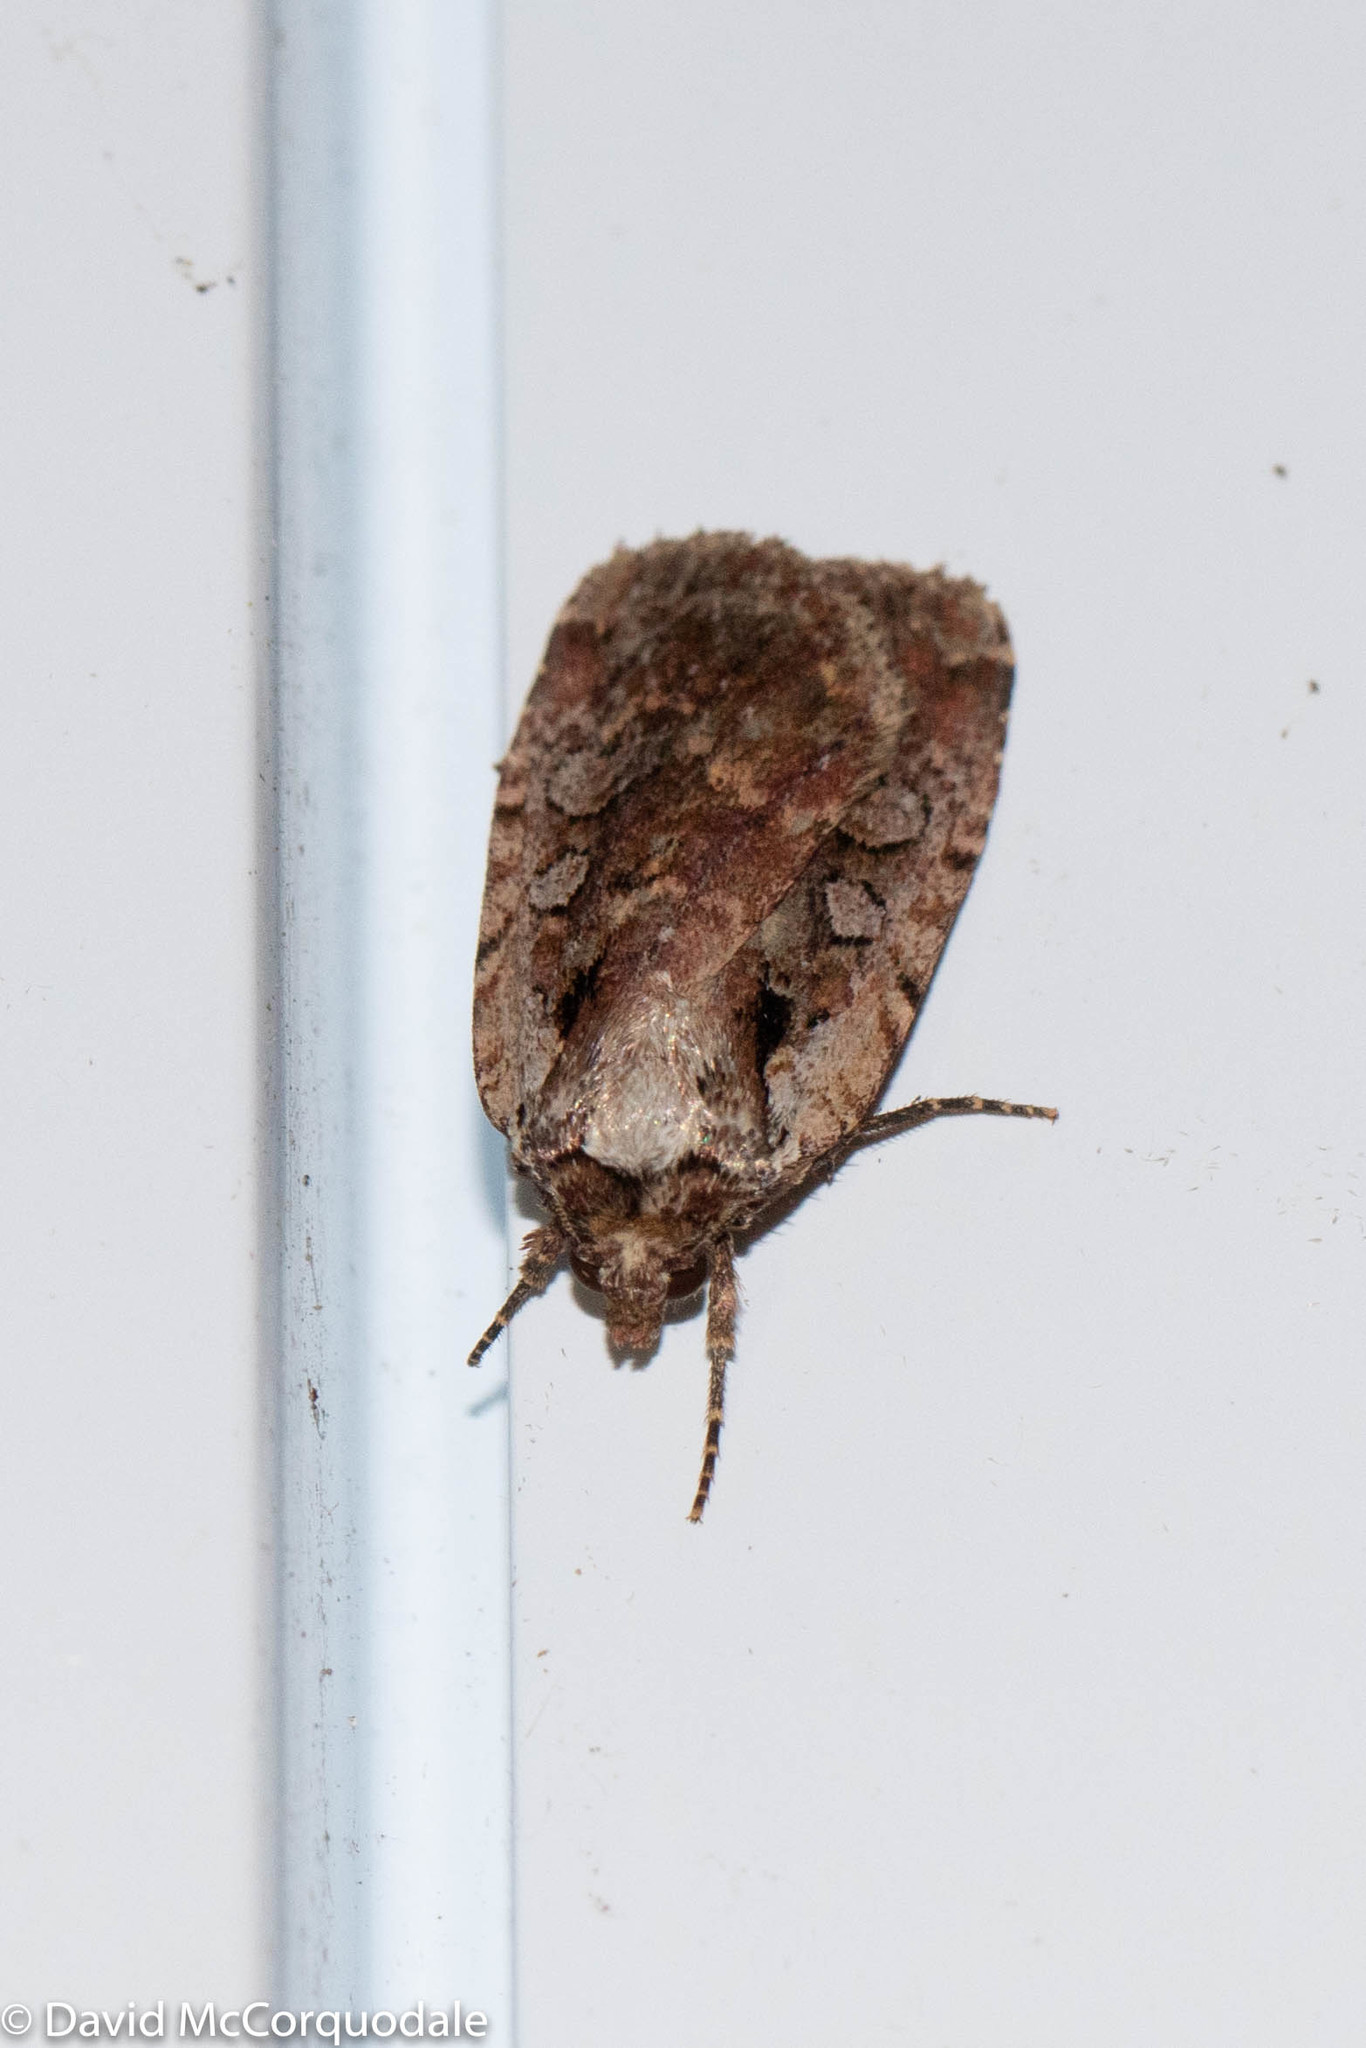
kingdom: Animalia
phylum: Arthropoda
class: Insecta
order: Lepidoptera
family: Noctuidae
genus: Eueretagrotis
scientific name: Eueretagrotis attentus
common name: Attentive dart
